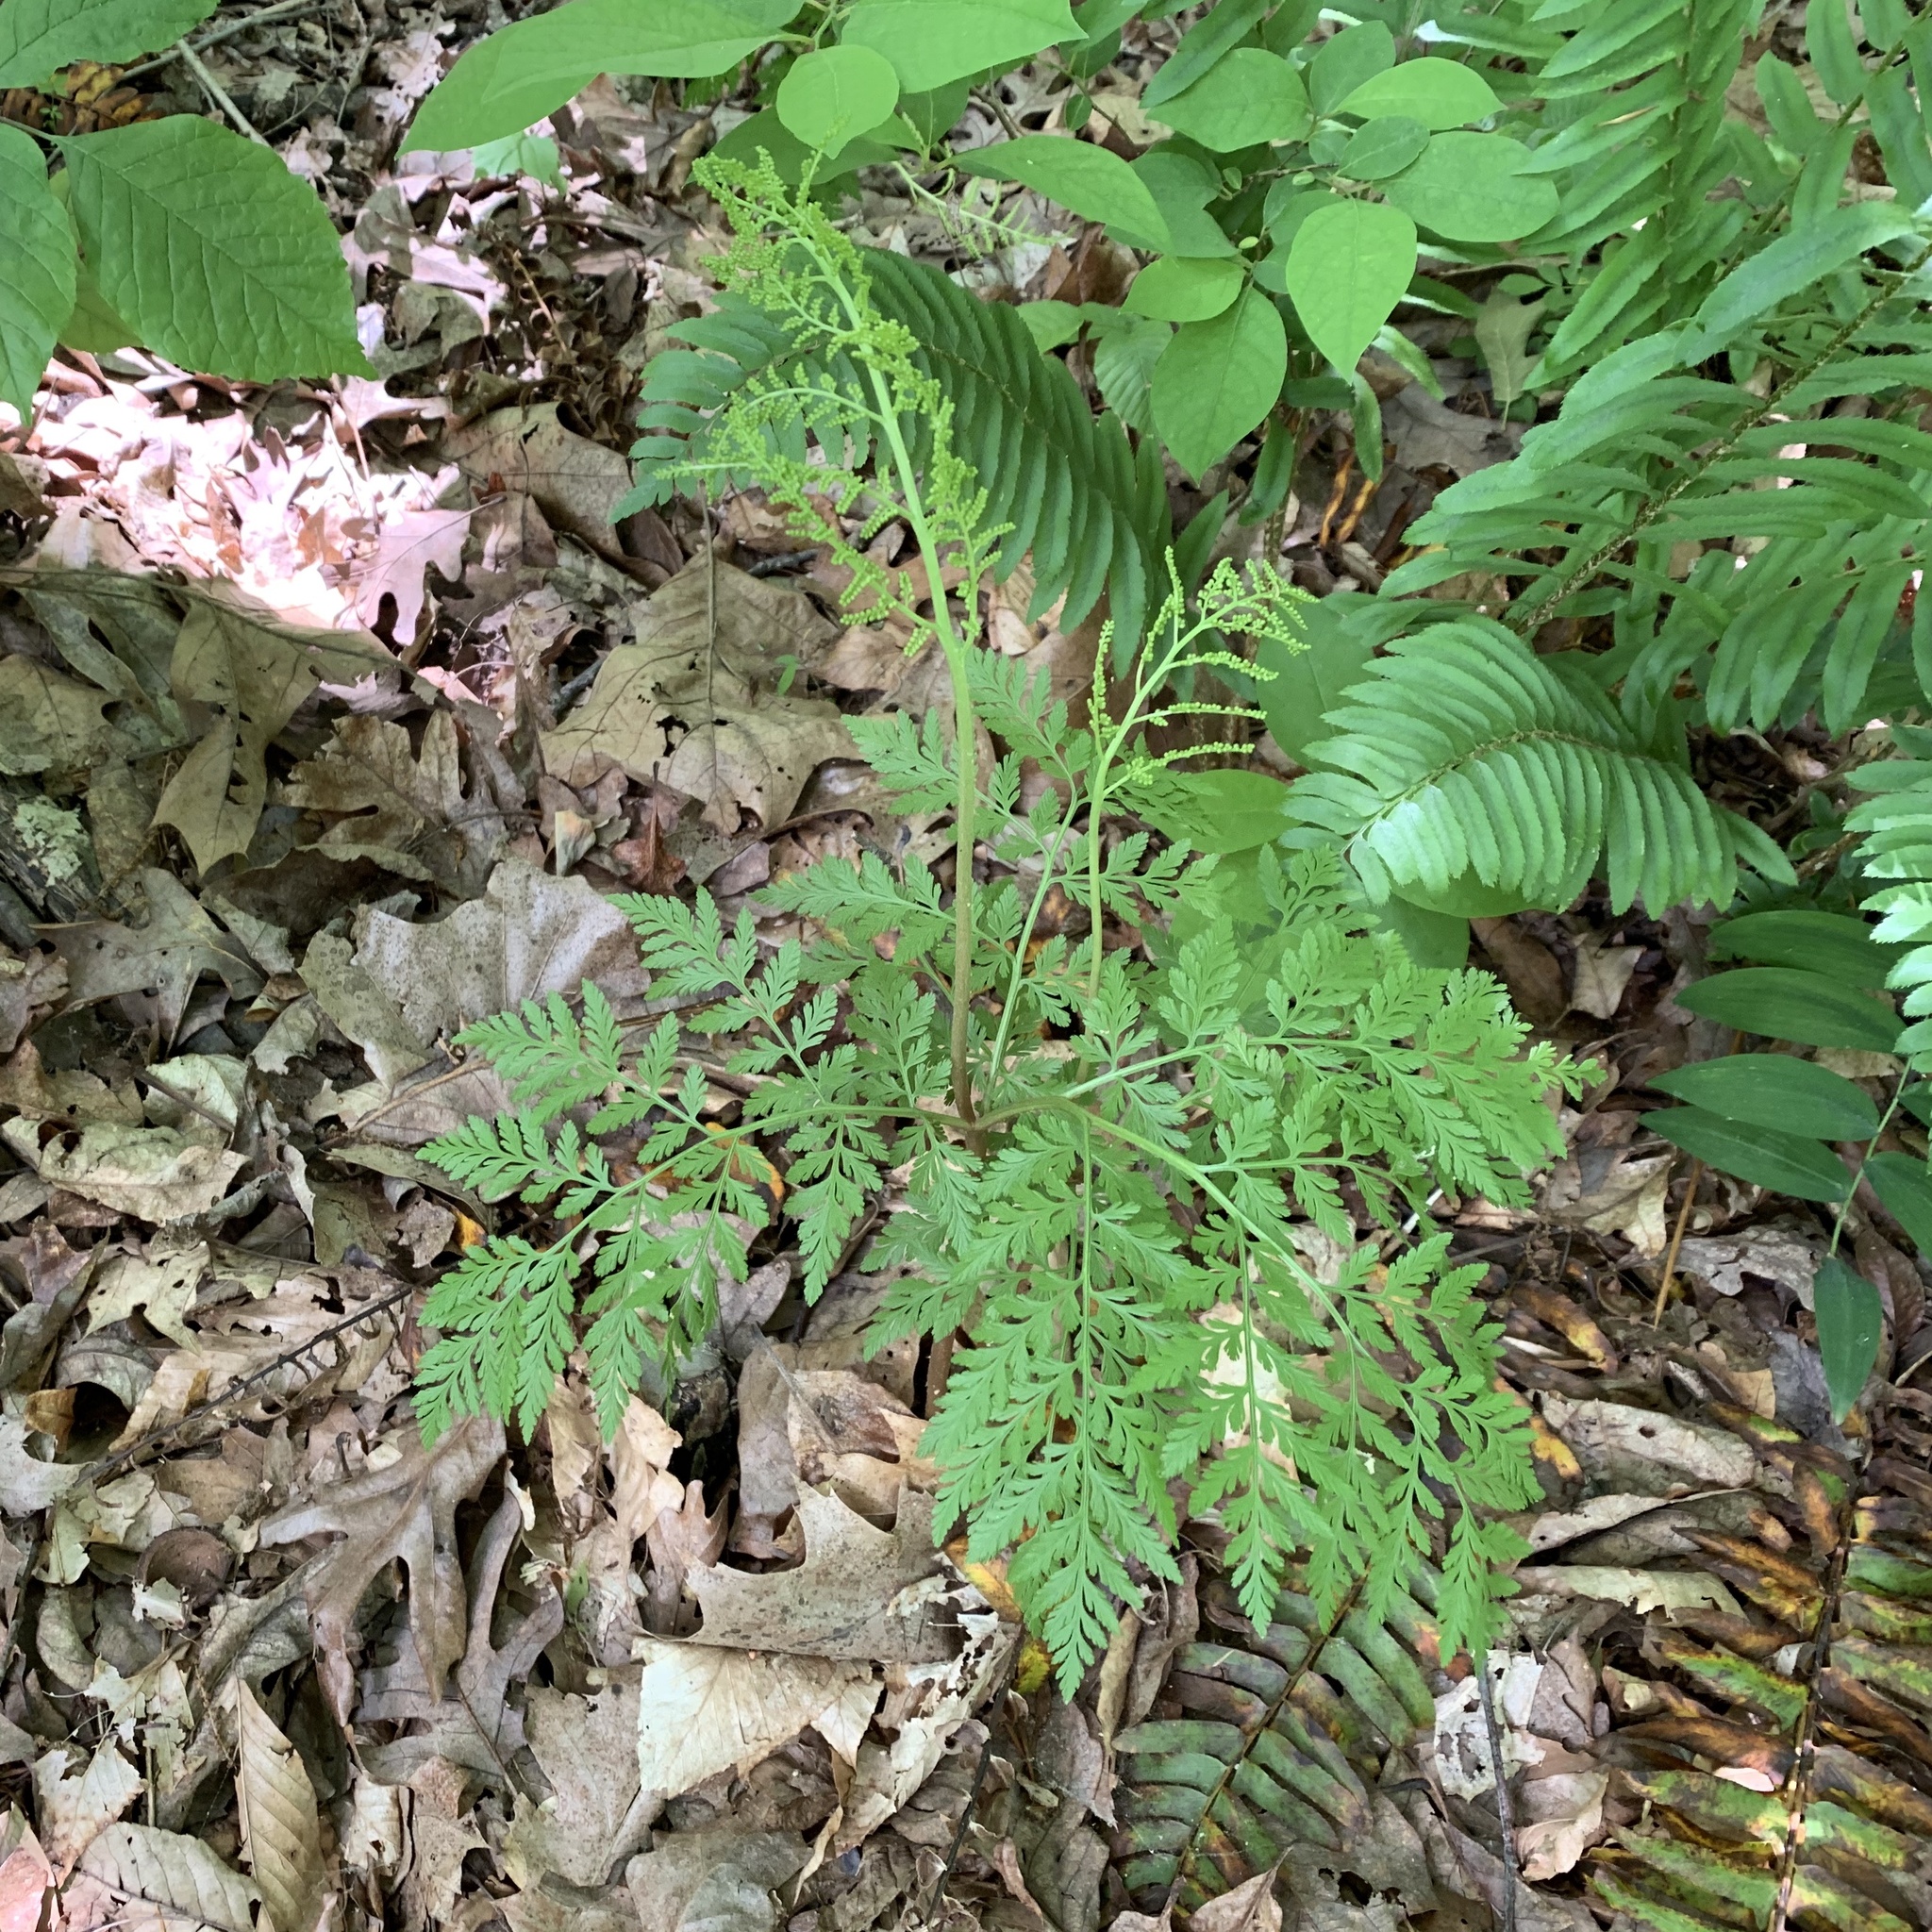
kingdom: Plantae
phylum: Tracheophyta
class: Polypodiopsida
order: Ophioglossales
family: Ophioglossaceae
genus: Botrypus
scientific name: Botrypus virginianus
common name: Common grapefern
